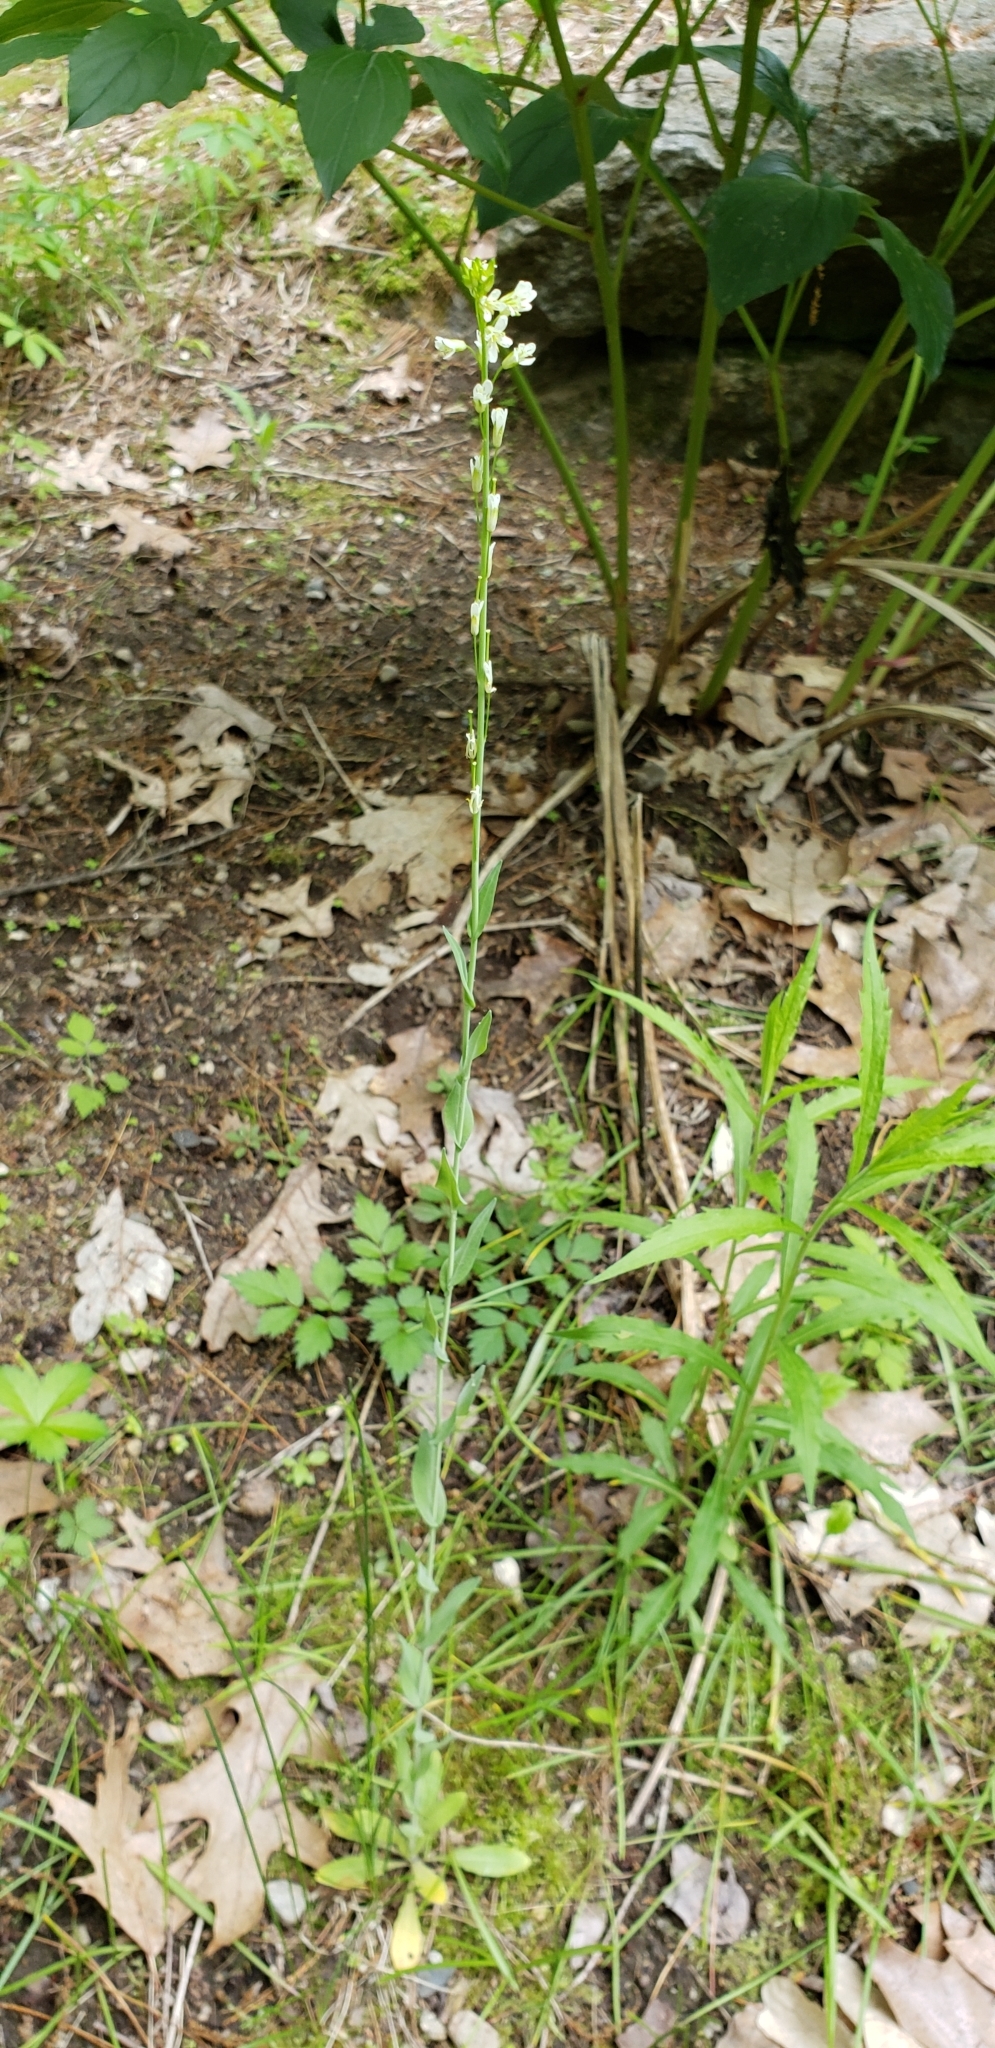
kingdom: Plantae
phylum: Tracheophyta
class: Magnoliopsida
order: Brassicales
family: Brassicaceae
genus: Turritis
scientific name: Turritis glabra
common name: Tower rockcress
